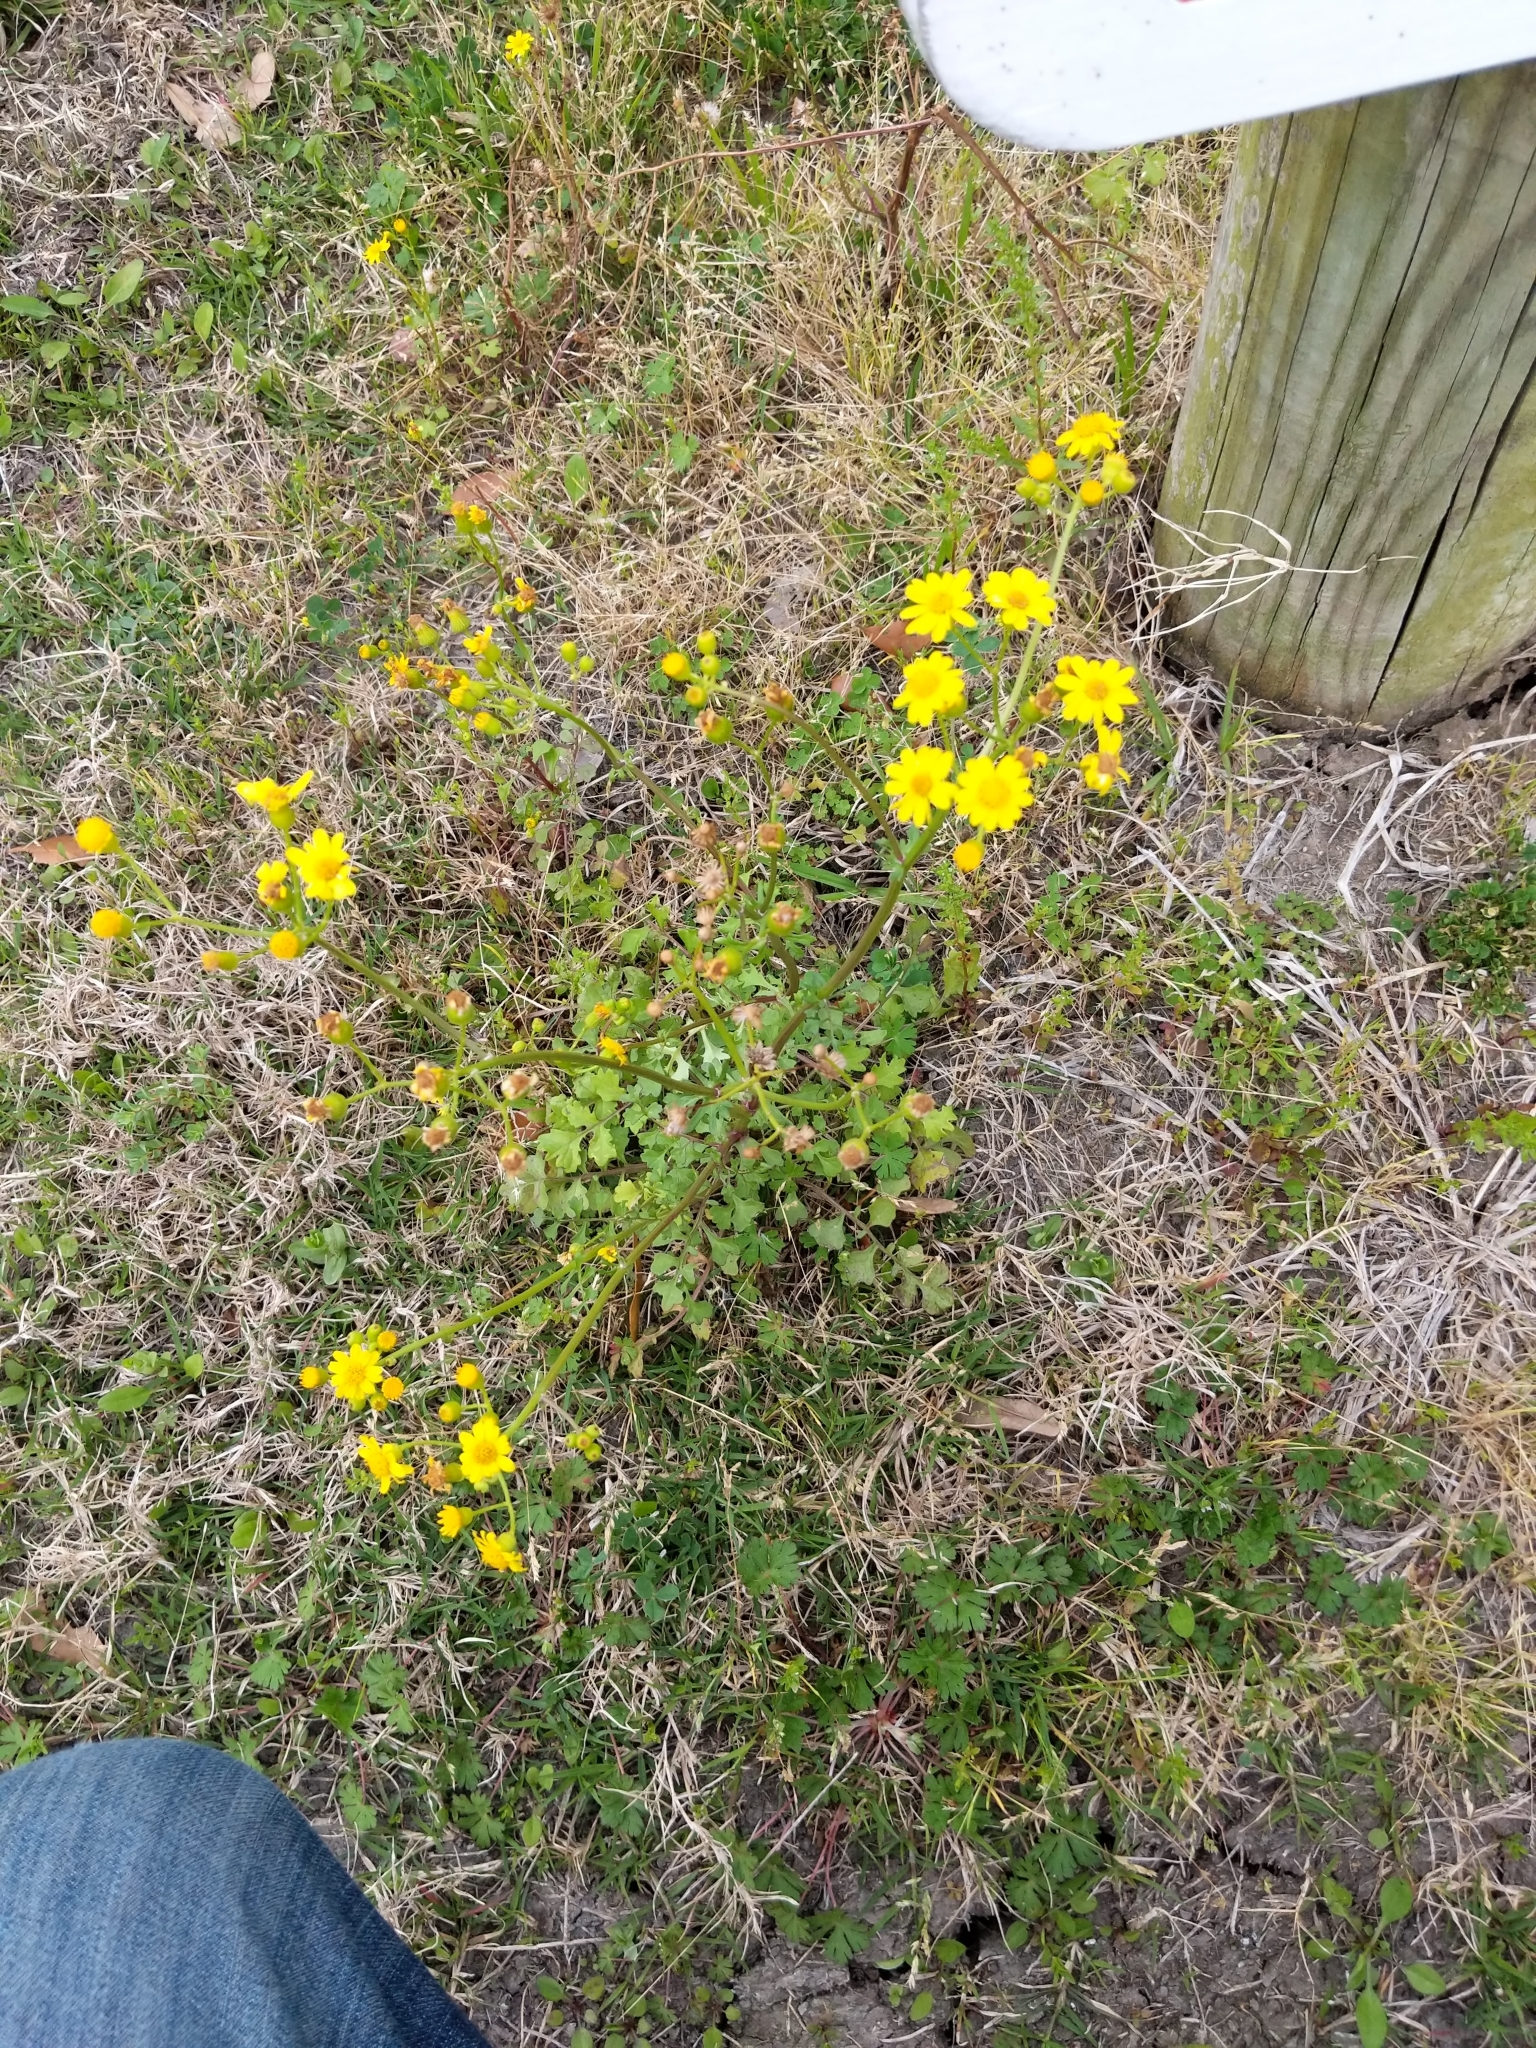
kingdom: Plantae
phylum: Tracheophyta
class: Magnoliopsida
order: Asterales
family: Asteraceae
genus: Heterotheca
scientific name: Heterotheca subaxillaris
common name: Camphorweed
